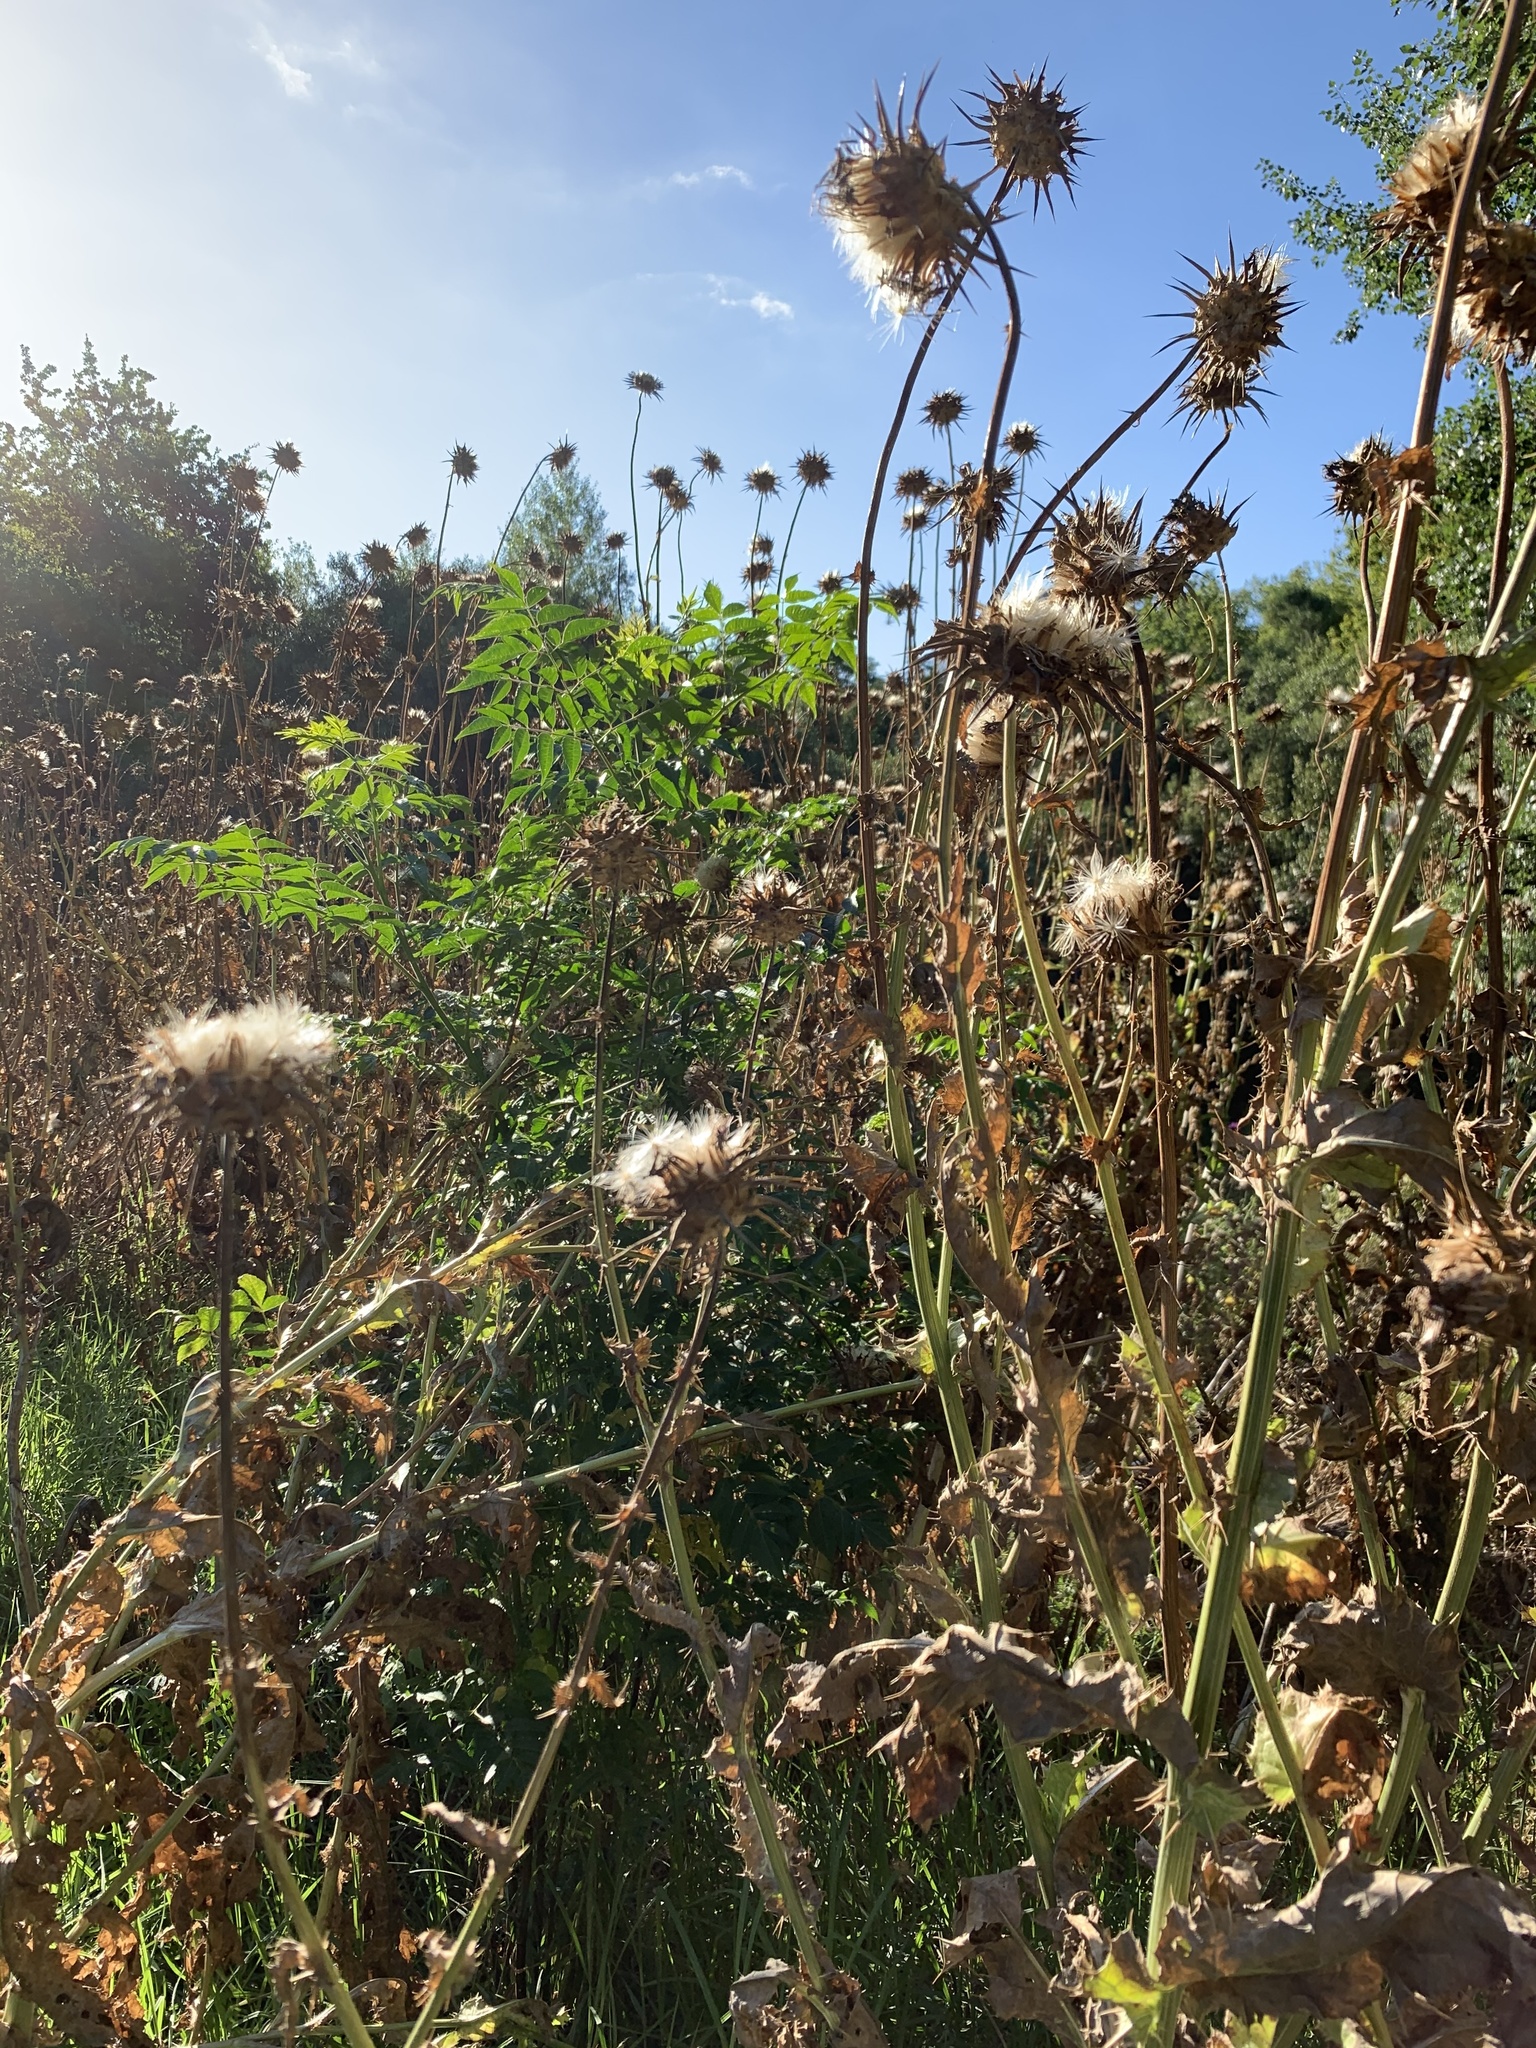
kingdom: Plantae
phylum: Tracheophyta
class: Magnoliopsida
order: Asterales
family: Asteraceae
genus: Silybum
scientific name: Silybum marianum
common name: Milk thistle
